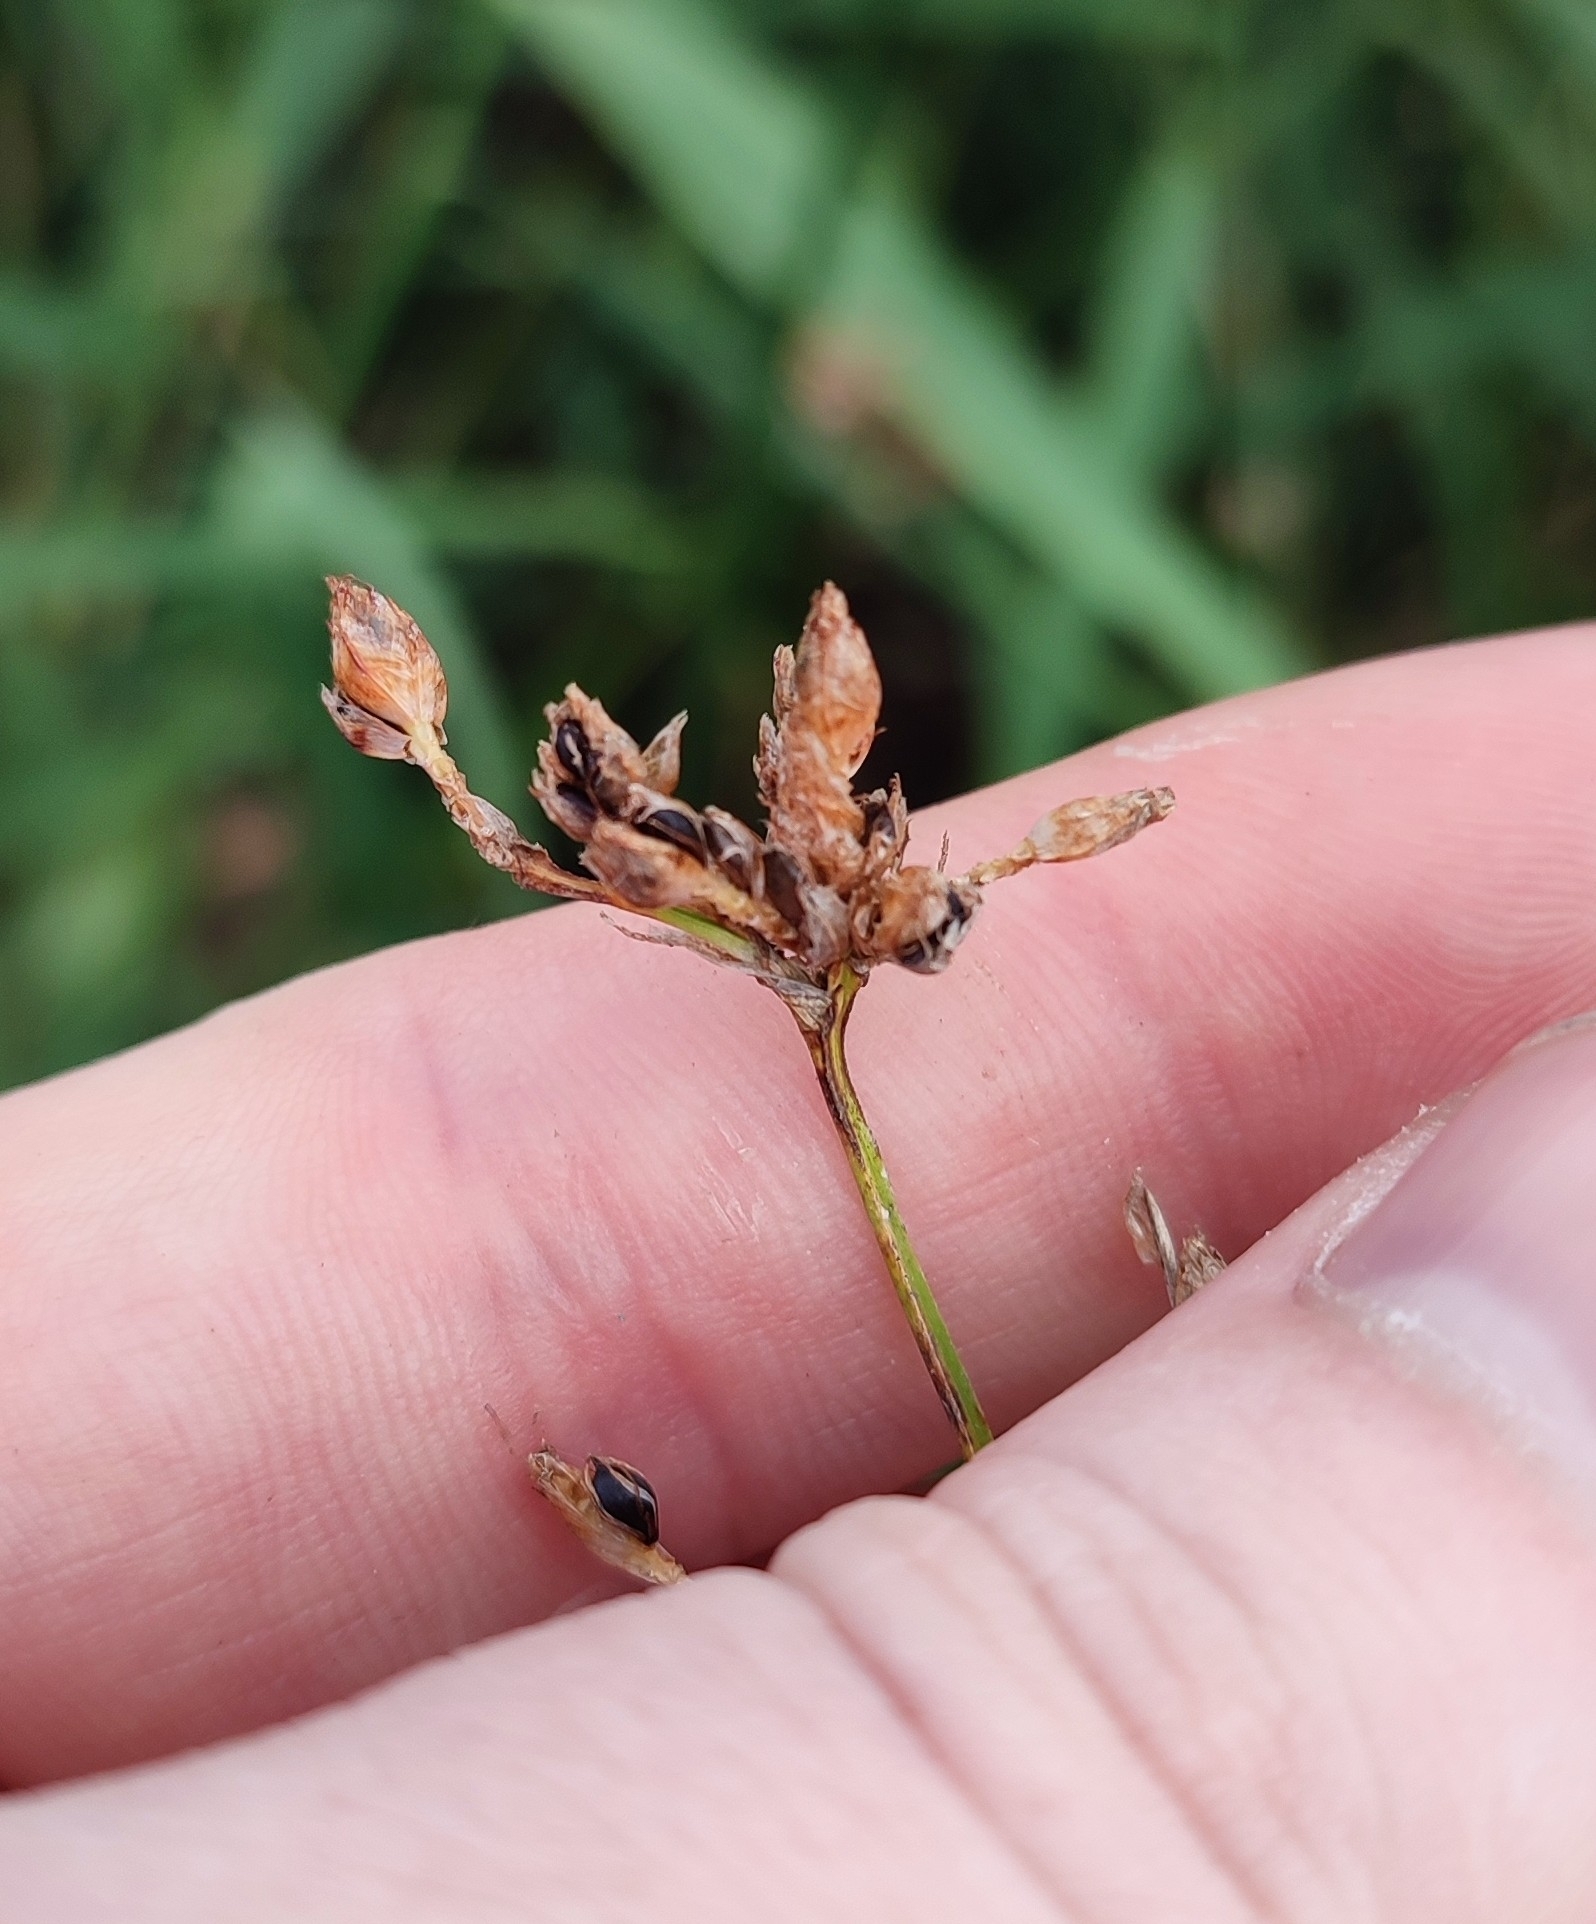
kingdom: Plantae
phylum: Tracheophyta
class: Liliopsida
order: Poales
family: Cyperaceae
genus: Schoenoplectus
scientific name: Schoenoplectus lacustris
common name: Common club-rush
